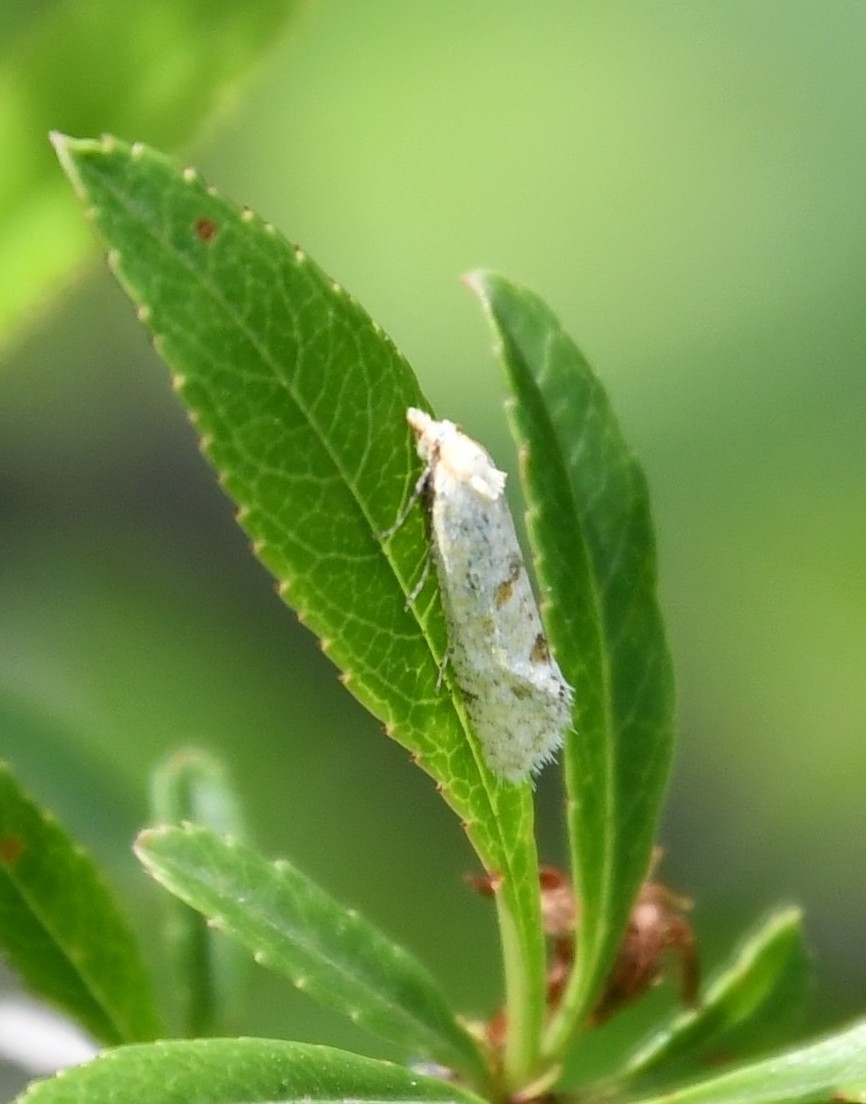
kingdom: Animalia
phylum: Arthropoda
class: Insecta
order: Lepidoptera
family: Tortricidae
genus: Aethes
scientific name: Aethes moribundana
